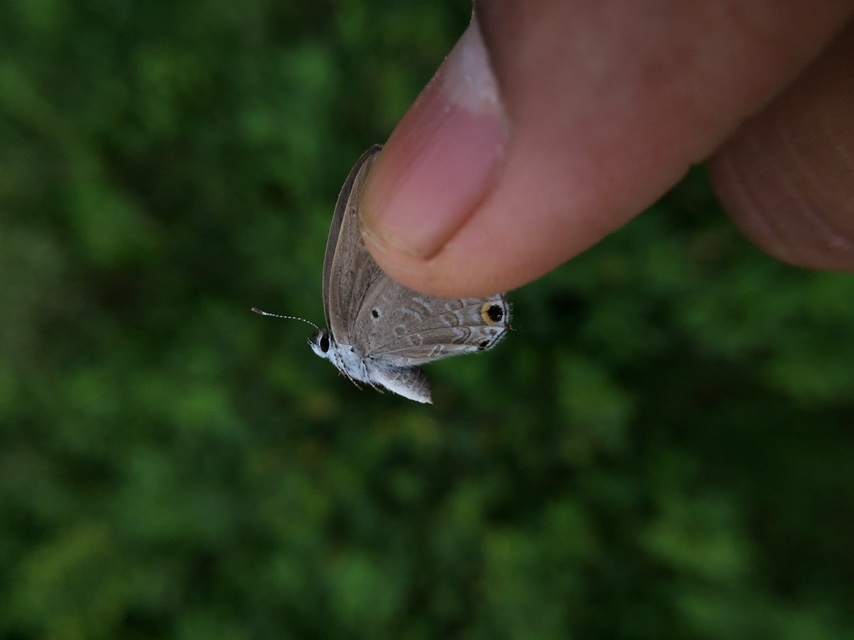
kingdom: Animalia
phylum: Arthropoda
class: Insecta
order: Lepidoptera
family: Lycaenidae
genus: Catochrysops
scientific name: Catochrysops strabo
